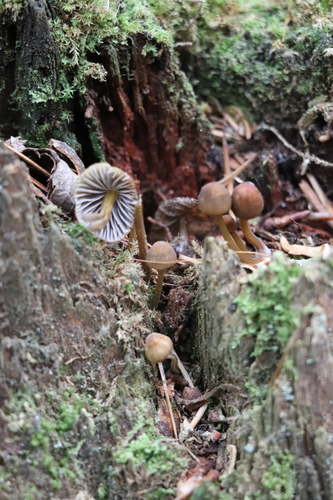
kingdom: Fungi
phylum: Basidiomycota
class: Agaricomycetes
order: Agaricales
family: Mycenaceae
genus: Mycena
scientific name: Mycena viridimarginata
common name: Olive edge bonnet
